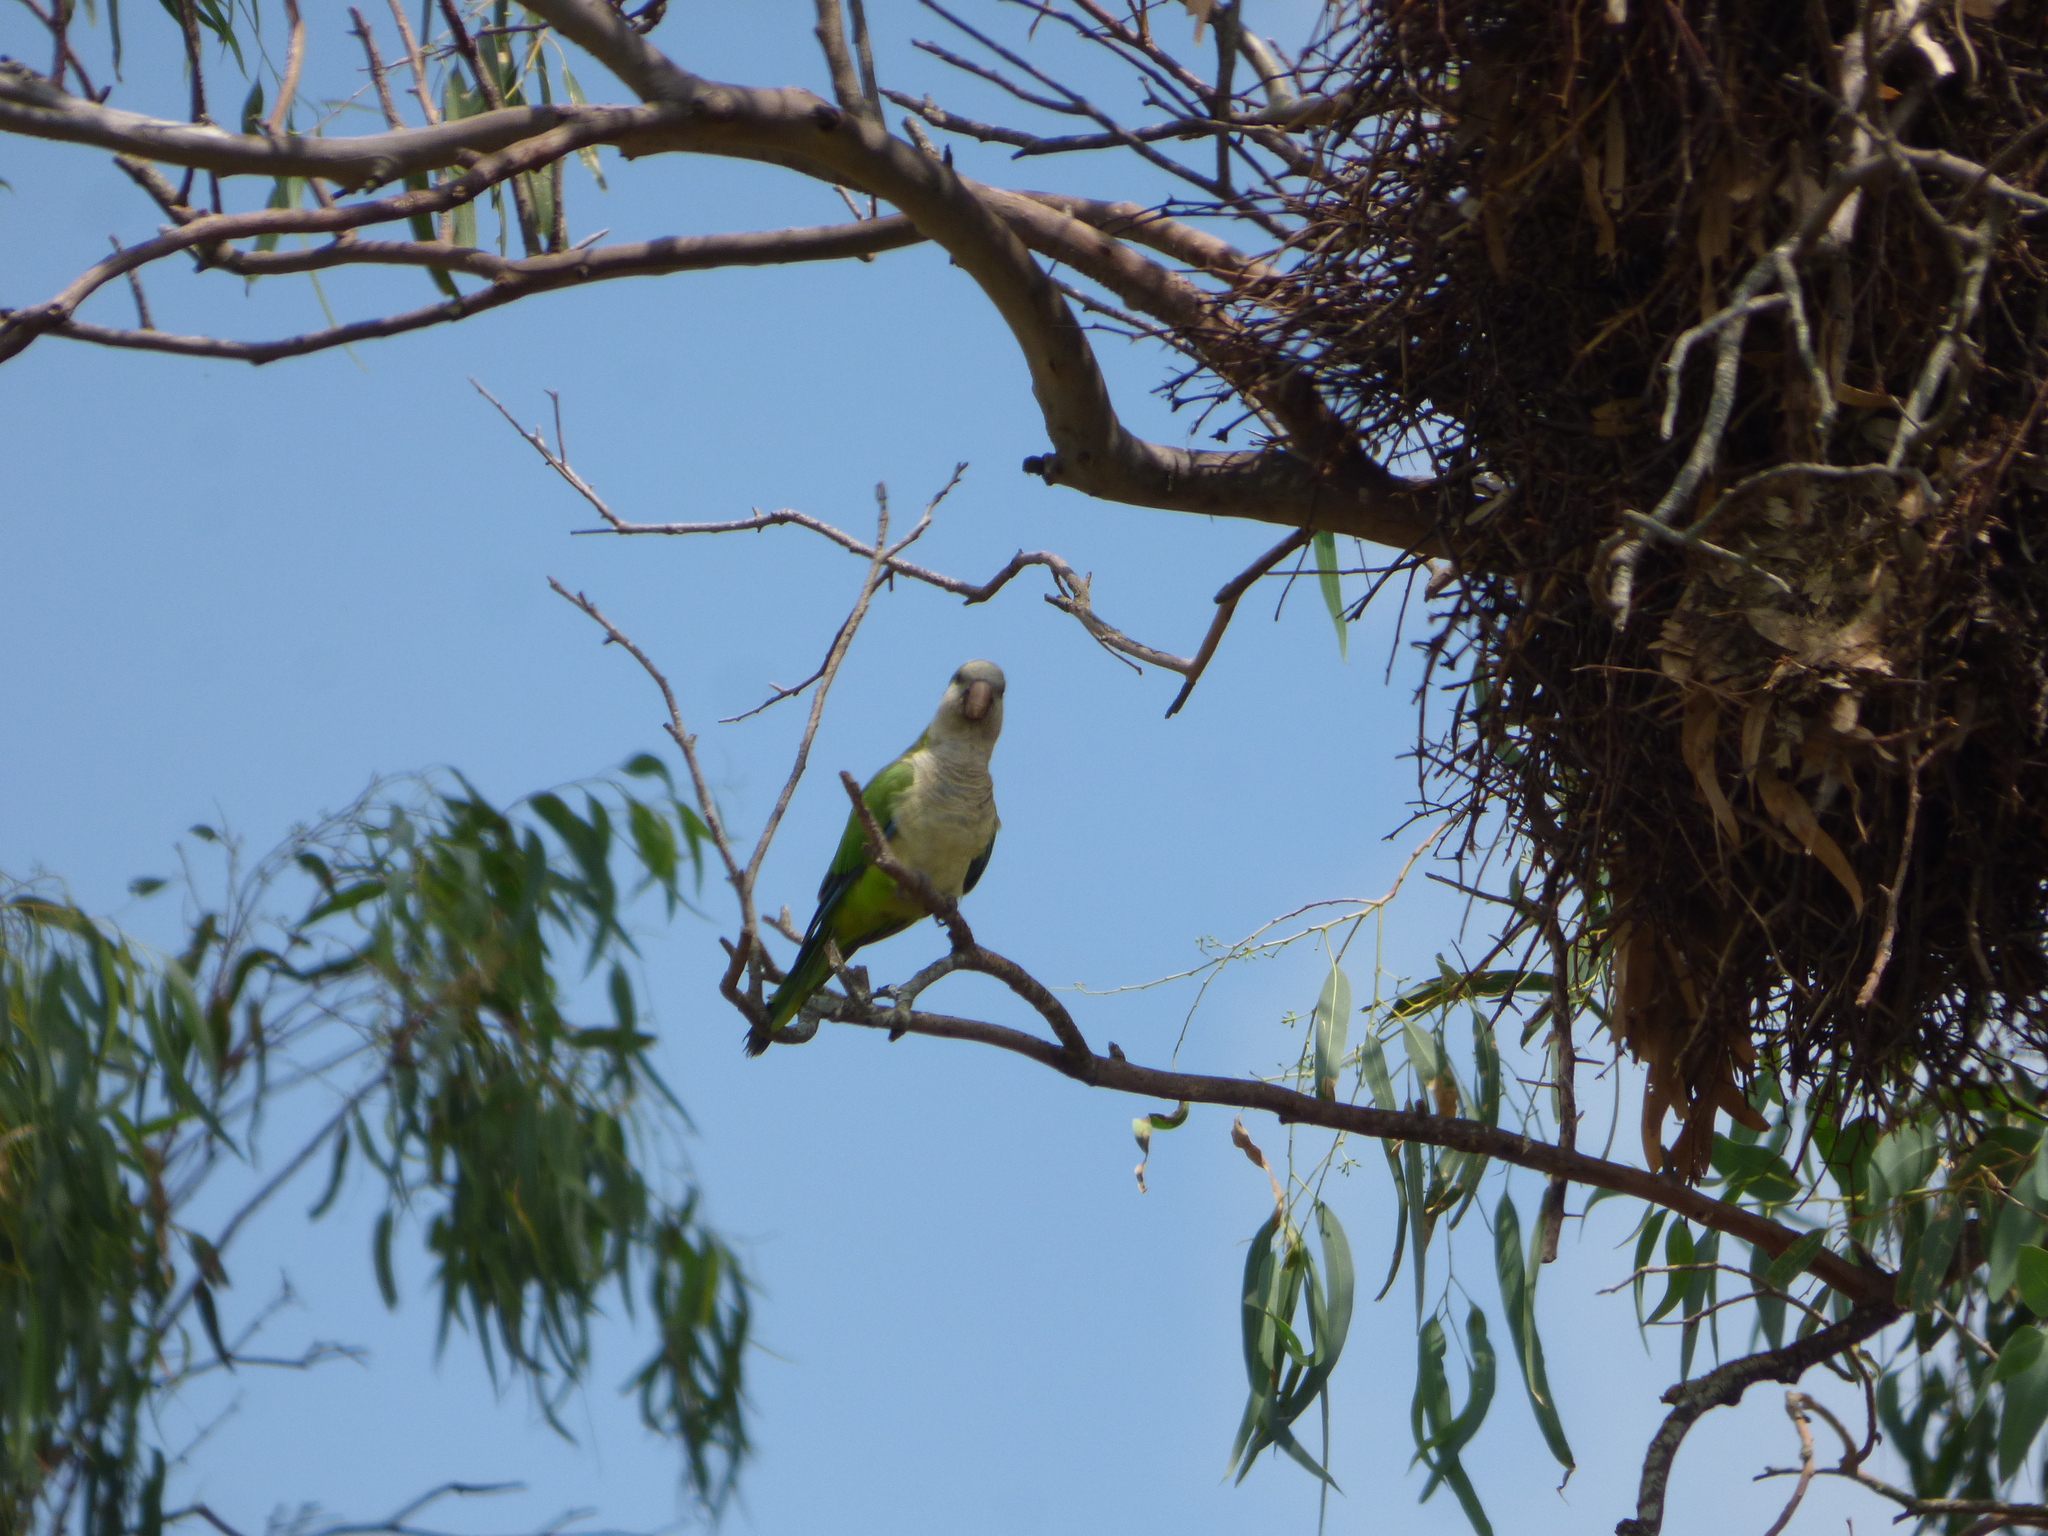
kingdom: Animalia
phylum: Chordata
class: Aves
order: Psittaciformes
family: Psittacidae
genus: Myiopsitta
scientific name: Myiopsitta monachus
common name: Monk parakeet
